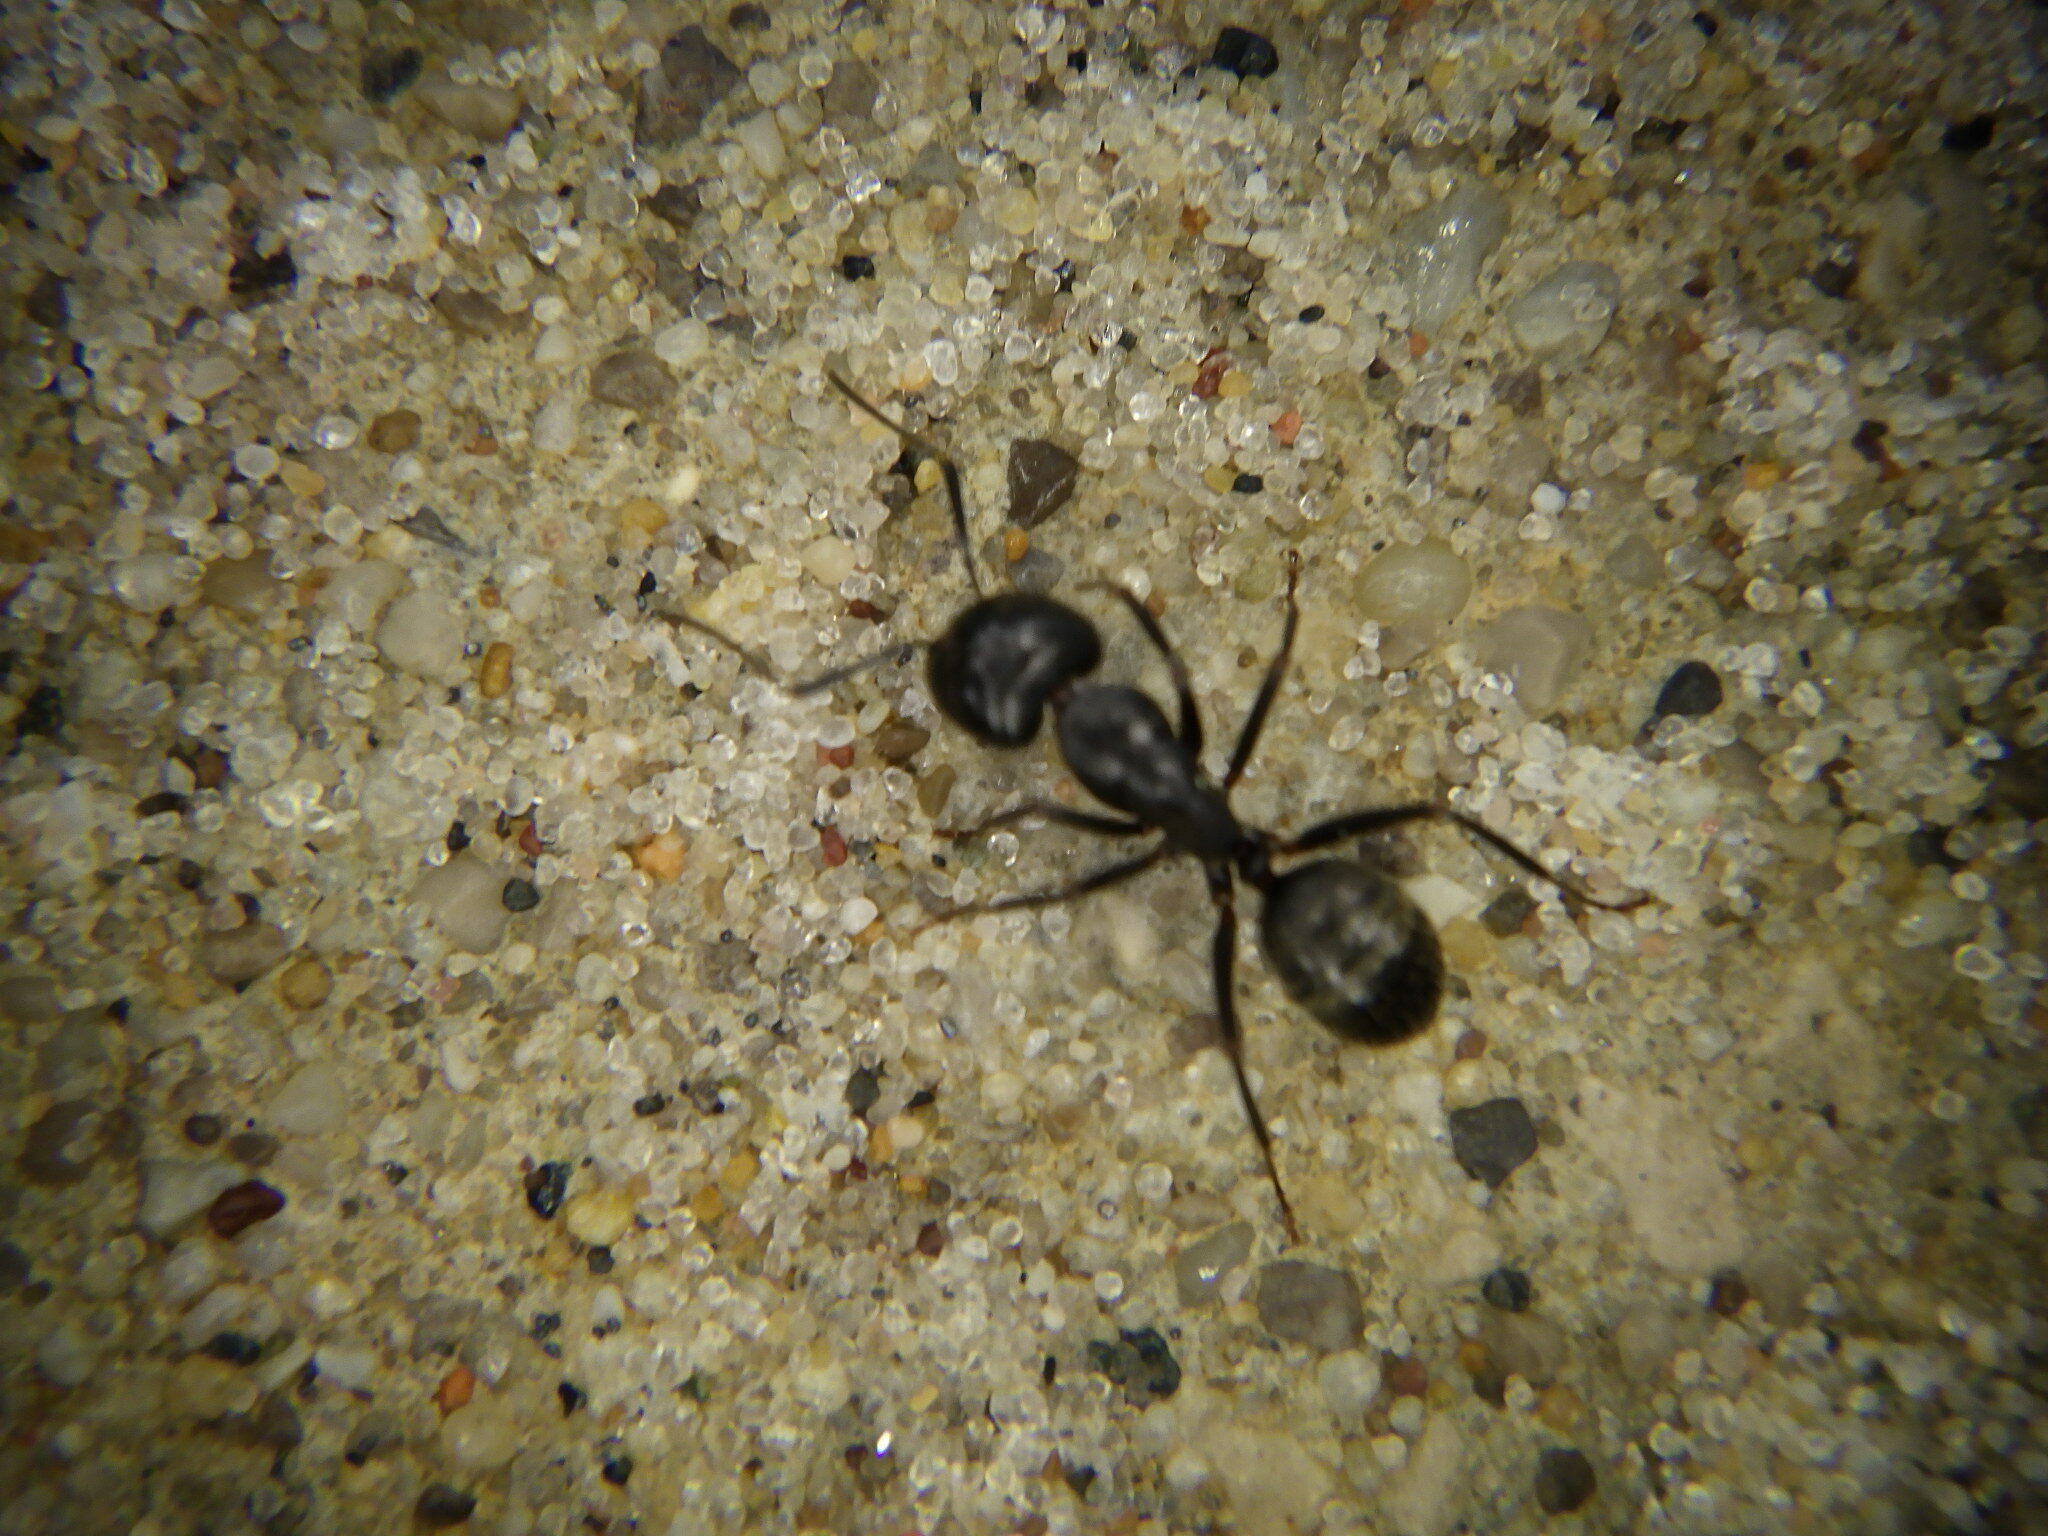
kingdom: Animalia
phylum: Arthropoda
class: Insecta
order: Hymenoptera
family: Formicidae
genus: Camponotus
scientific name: Camponotus pennsylvanicus
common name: Black carpenter ant
